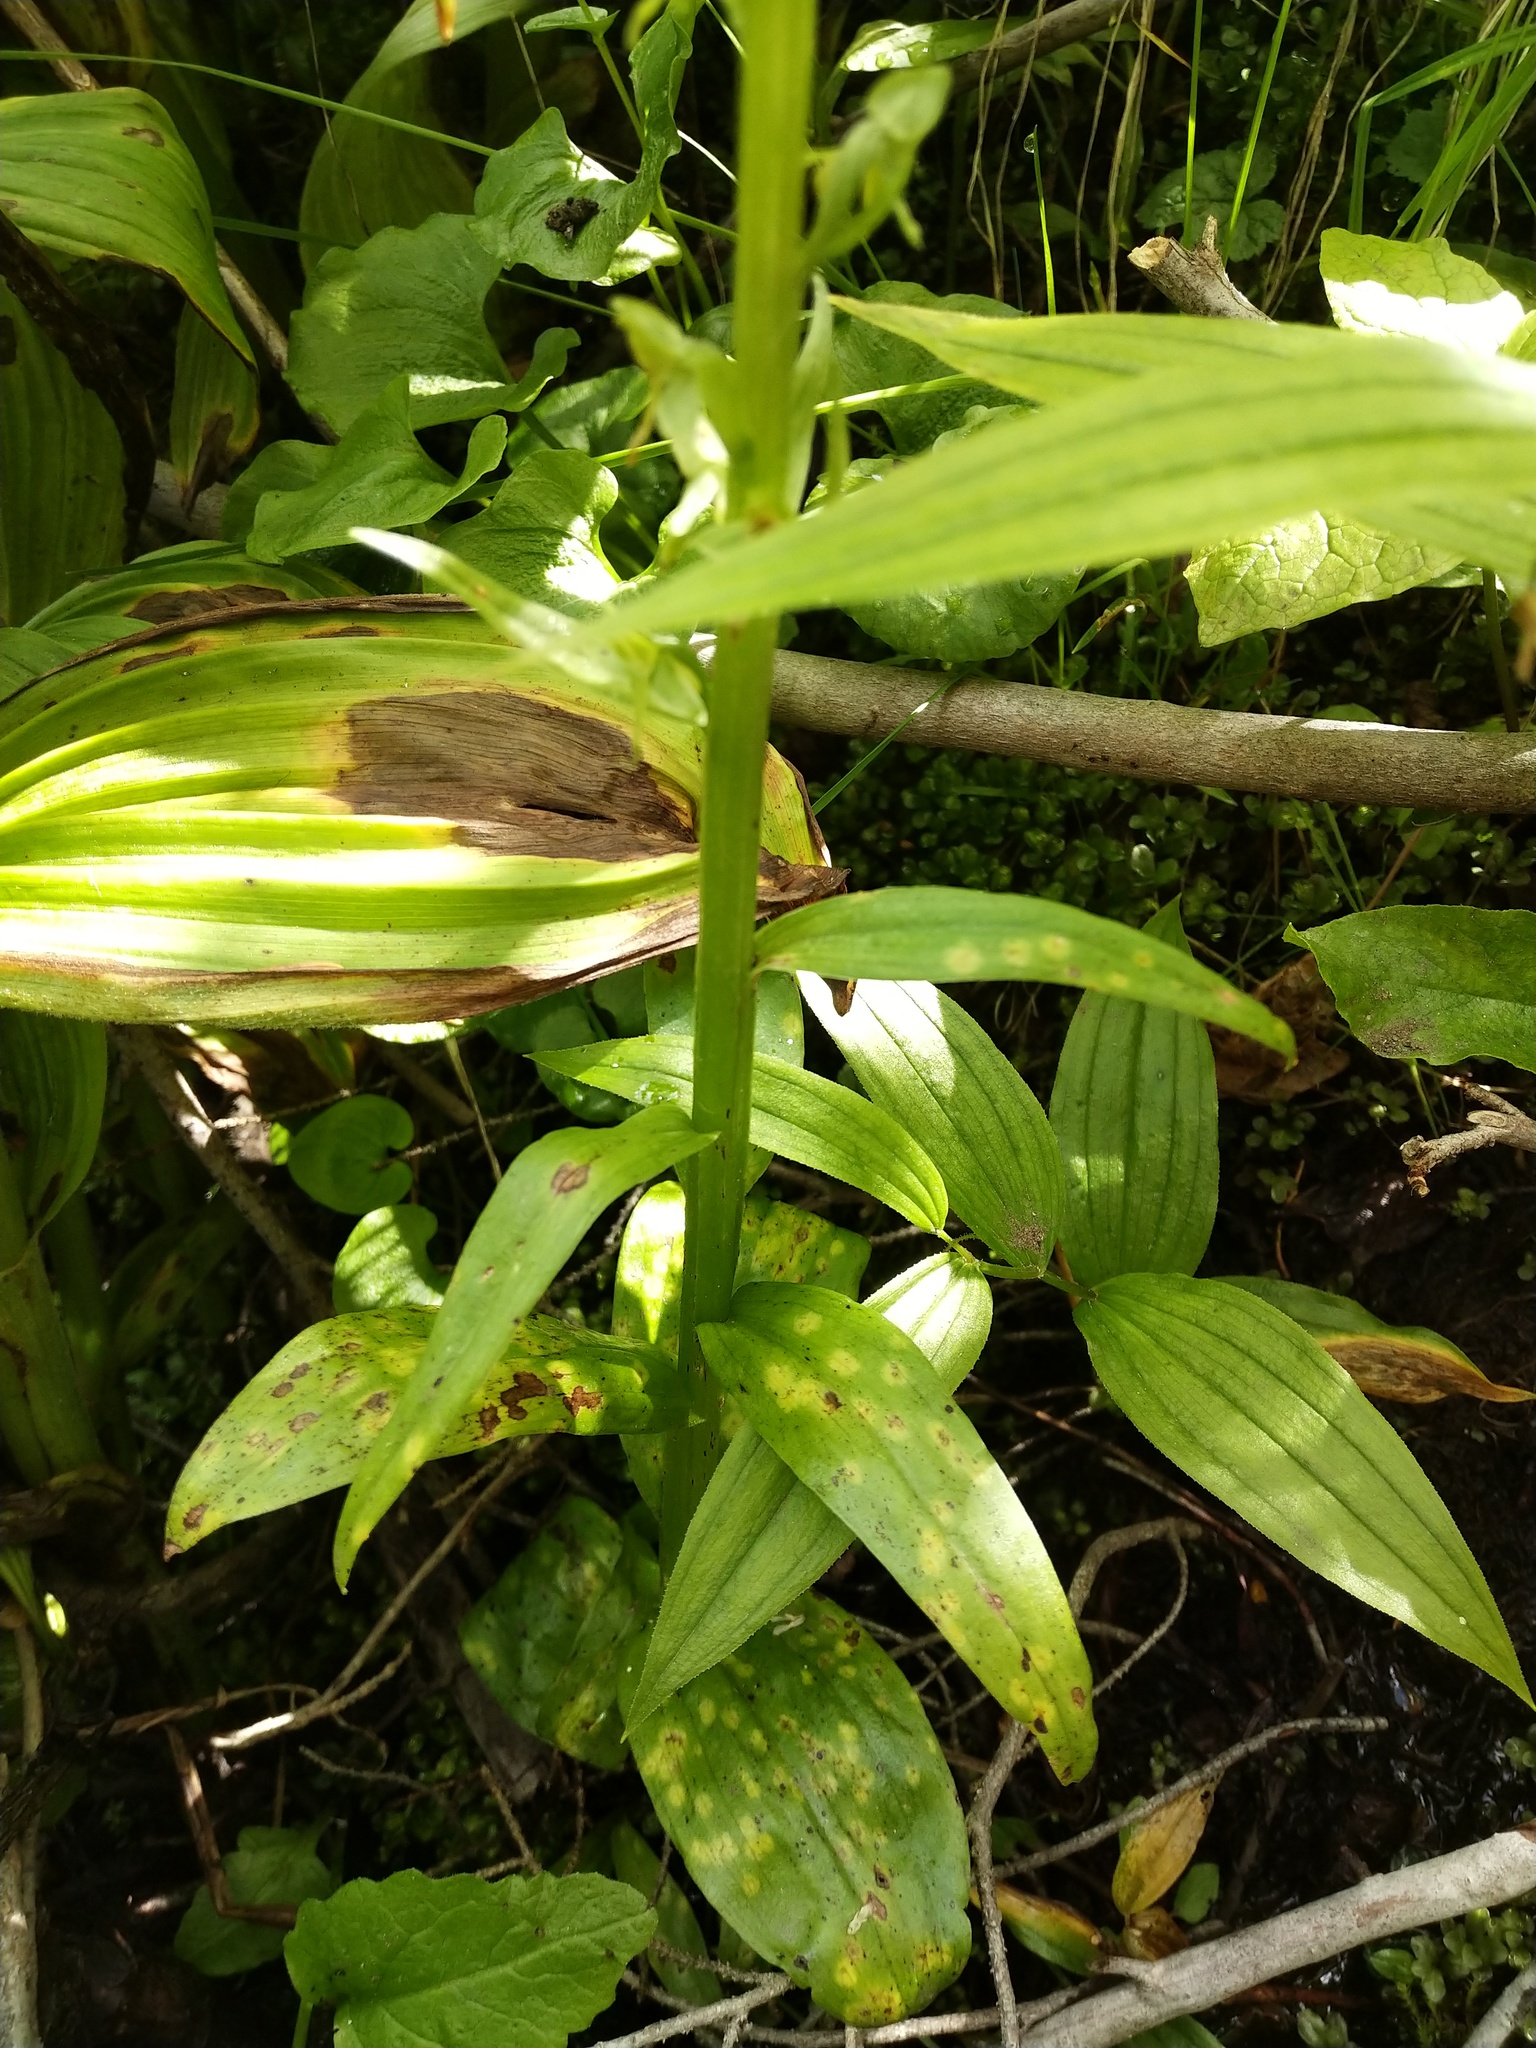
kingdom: Plantae
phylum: Tracheophyta
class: Liliopsida
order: Asparagales
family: Orchidaceae
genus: Platanthera
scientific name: Platanthera stricta
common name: Slender bog orchid
